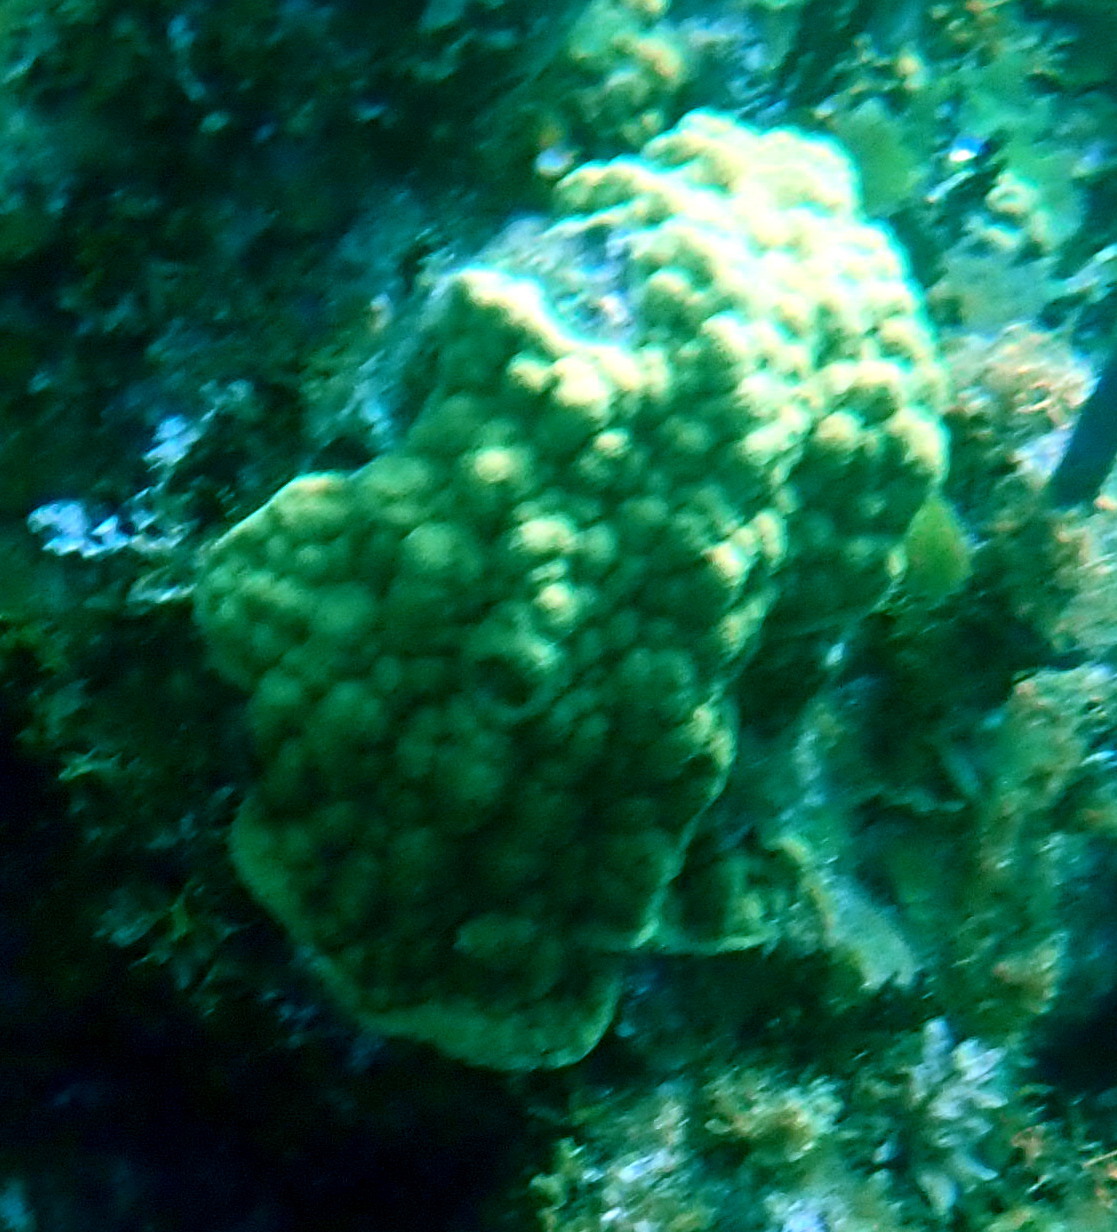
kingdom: Animalia
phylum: Cnidaria
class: Anthozoa
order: Scleractinia
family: Poritidae
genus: Porites
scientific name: Porites astreoides
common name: Mustard hill coral
